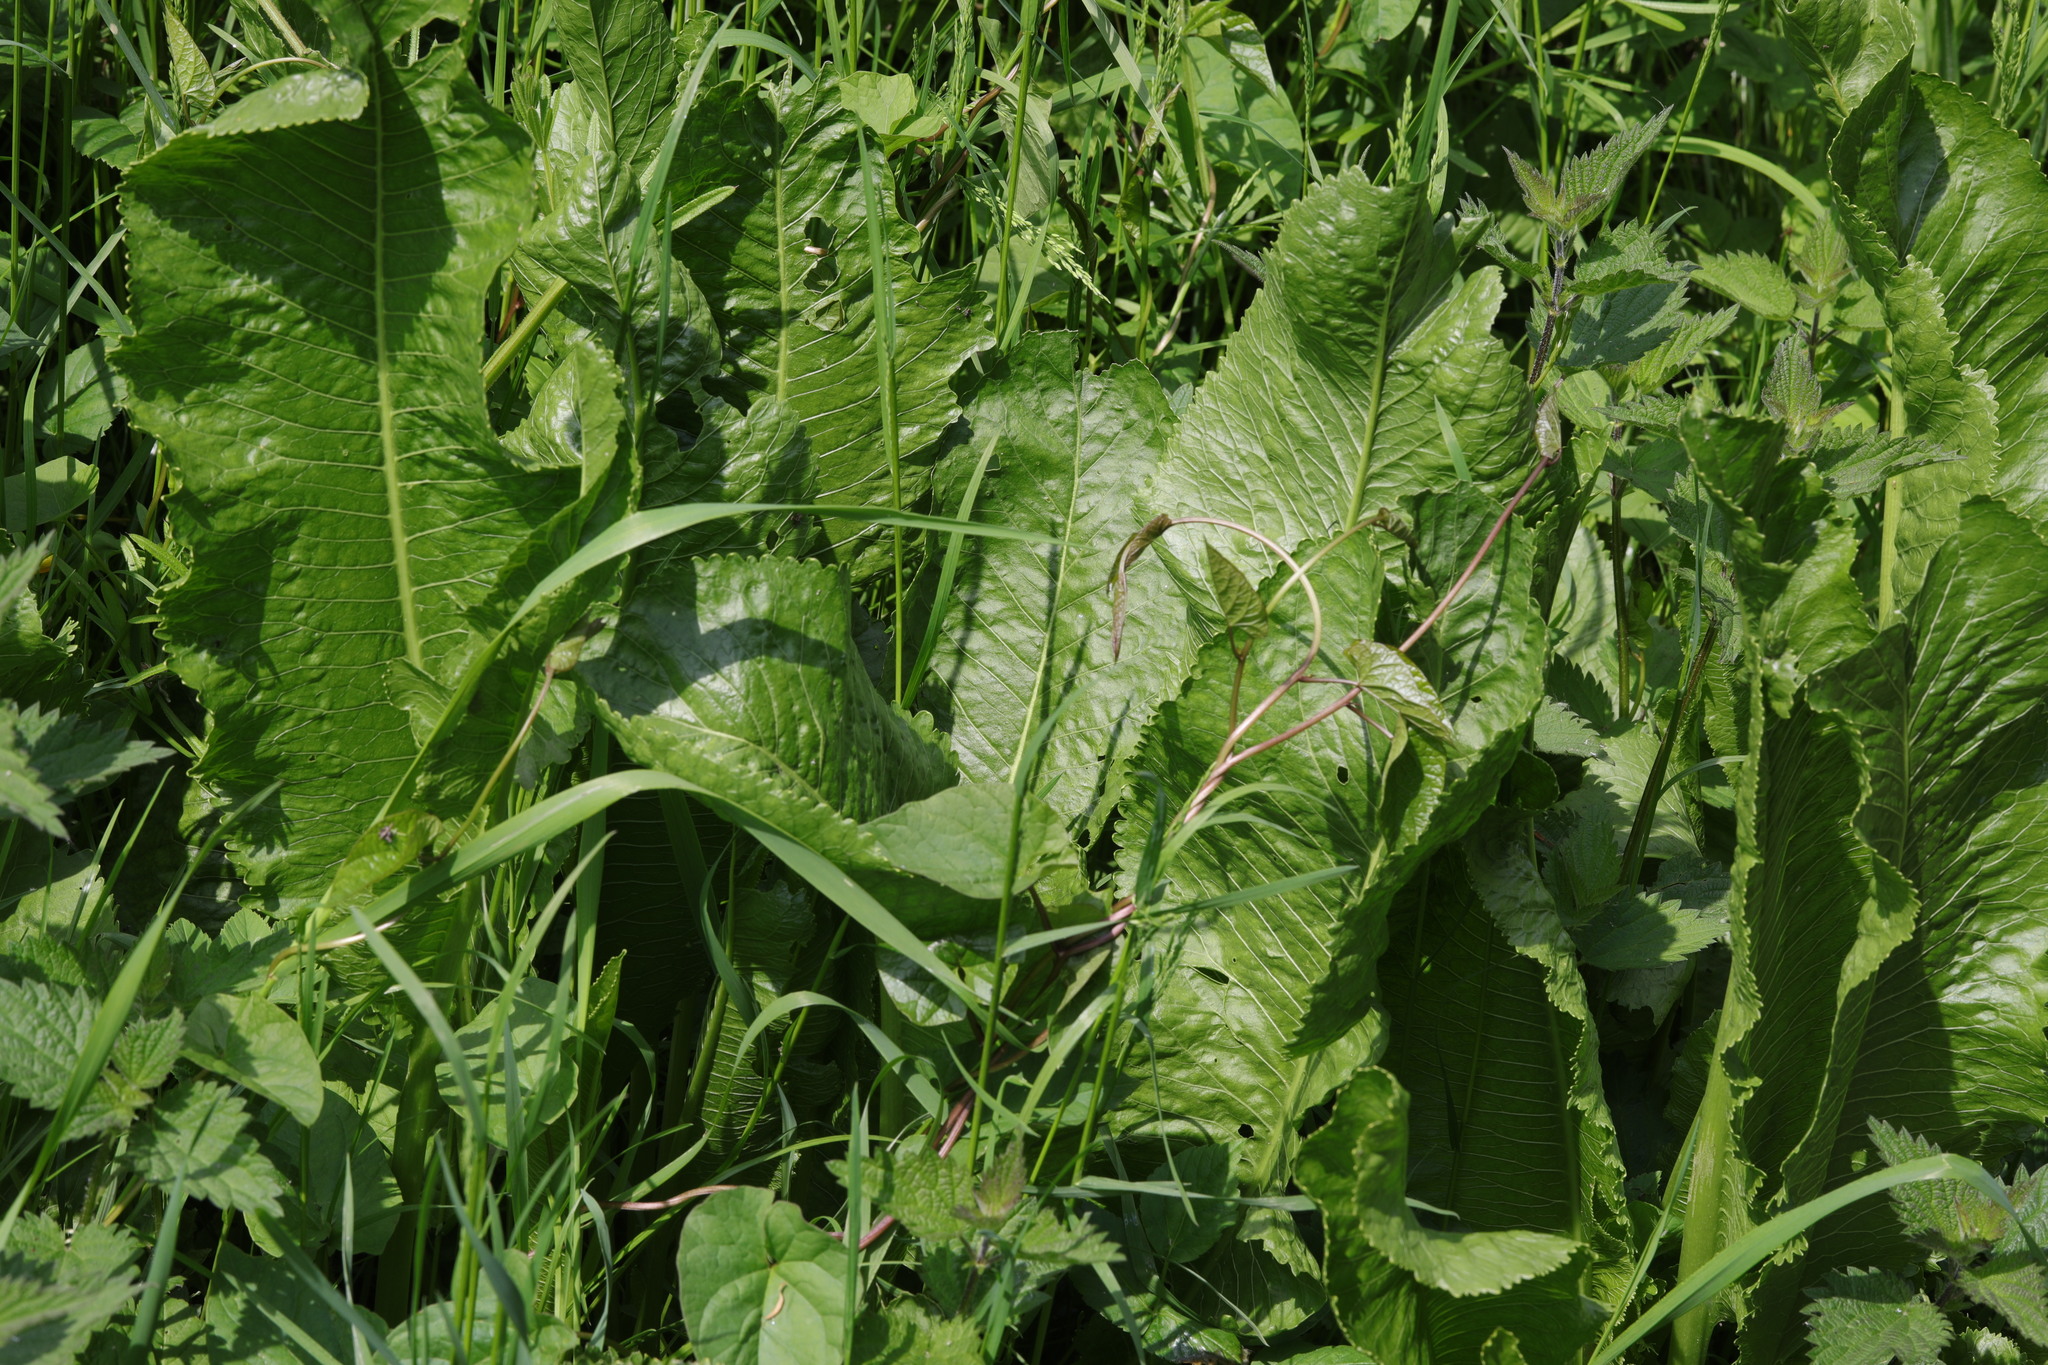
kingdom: Plantae
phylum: Tracheophyta
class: Magnoliopsida
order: Brassicales
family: Brassicaceae
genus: Armoracia
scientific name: Armoracia rusticana
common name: Horseradish
